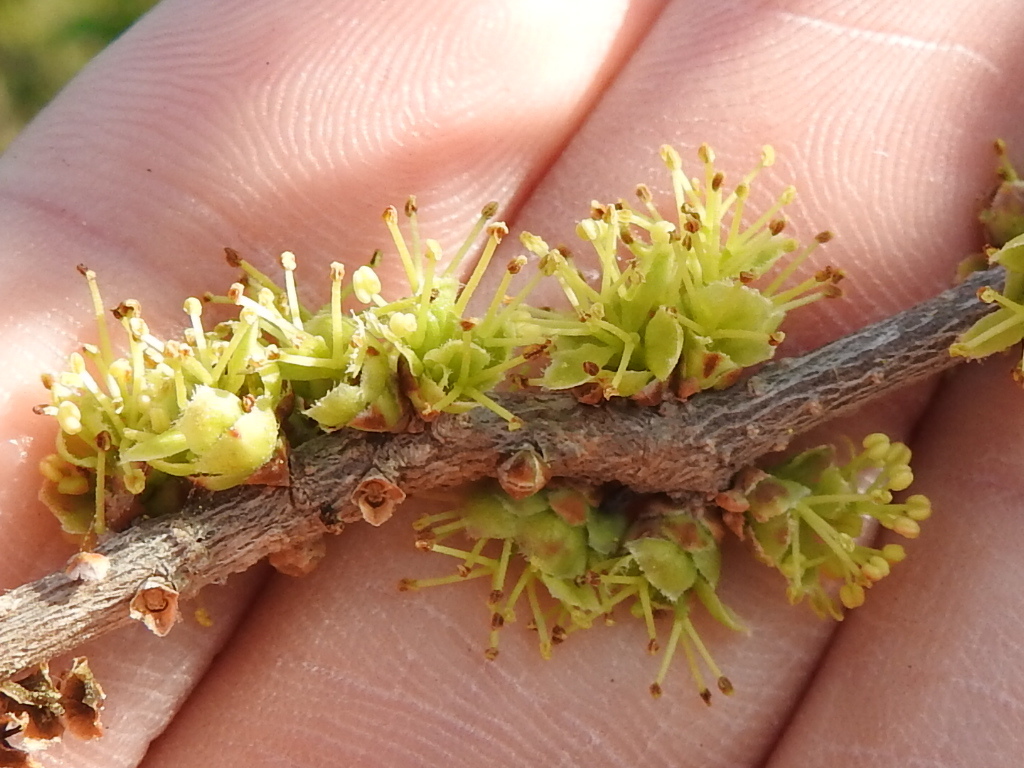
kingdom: Plantae
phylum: Tracheophyta
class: Magnoliopsida
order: Lamiales
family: Oleaceae
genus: Forestiera
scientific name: Forestiera segregata
